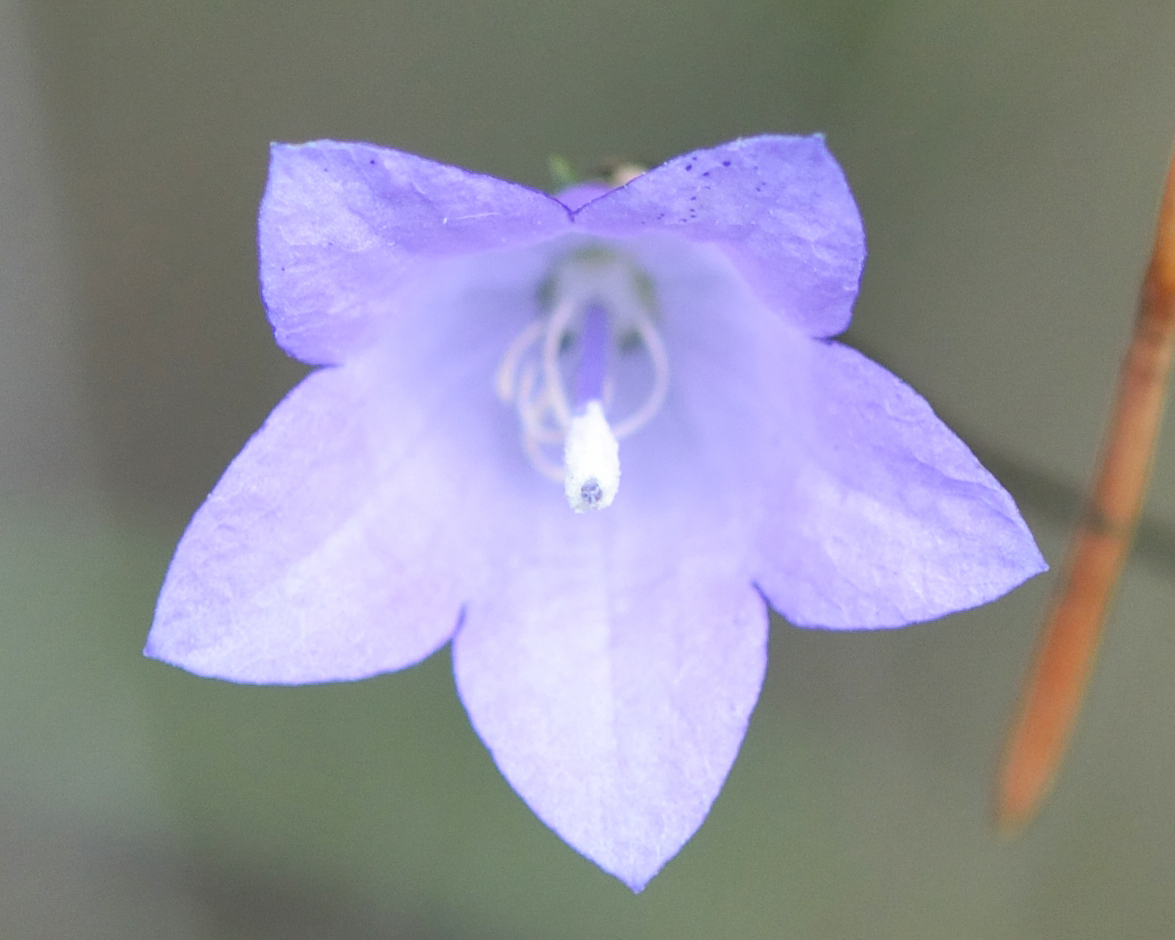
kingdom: Plantae
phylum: Tracheophyta
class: Magnoliopsida
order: Asterales
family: Campanulaceae
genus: Campanula
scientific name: Campanula rotundifolia
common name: Harebell
